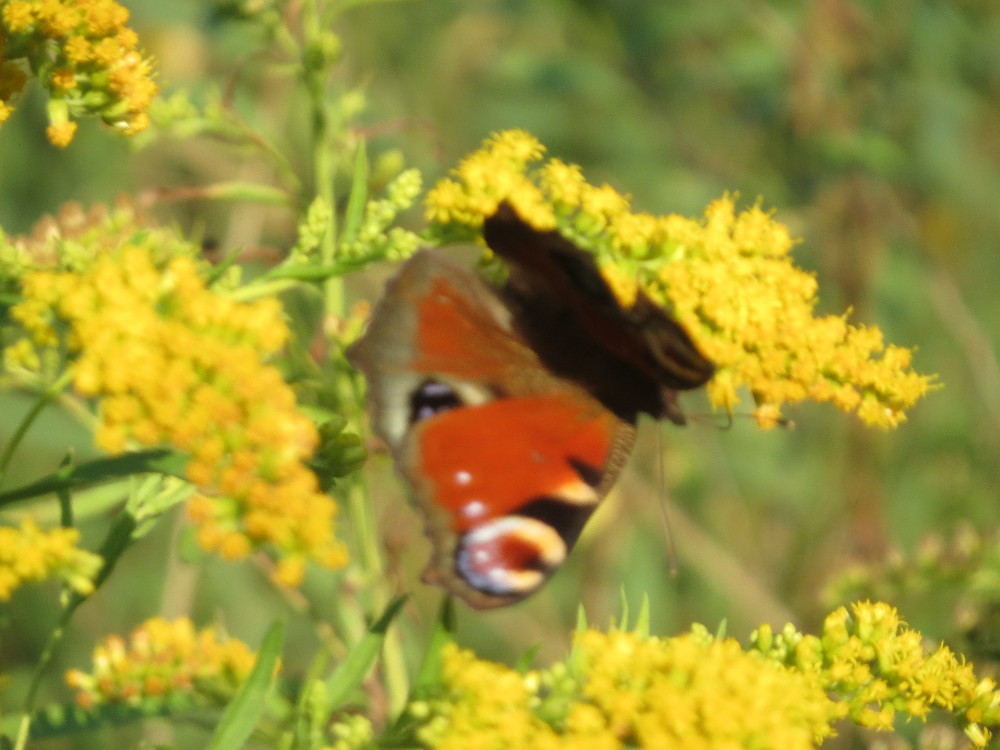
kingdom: Animalia
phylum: Arthropoda
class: Insecta
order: Lepidoptera
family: Nymphalidae
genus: Aglais
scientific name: Aglais io
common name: Peacock
